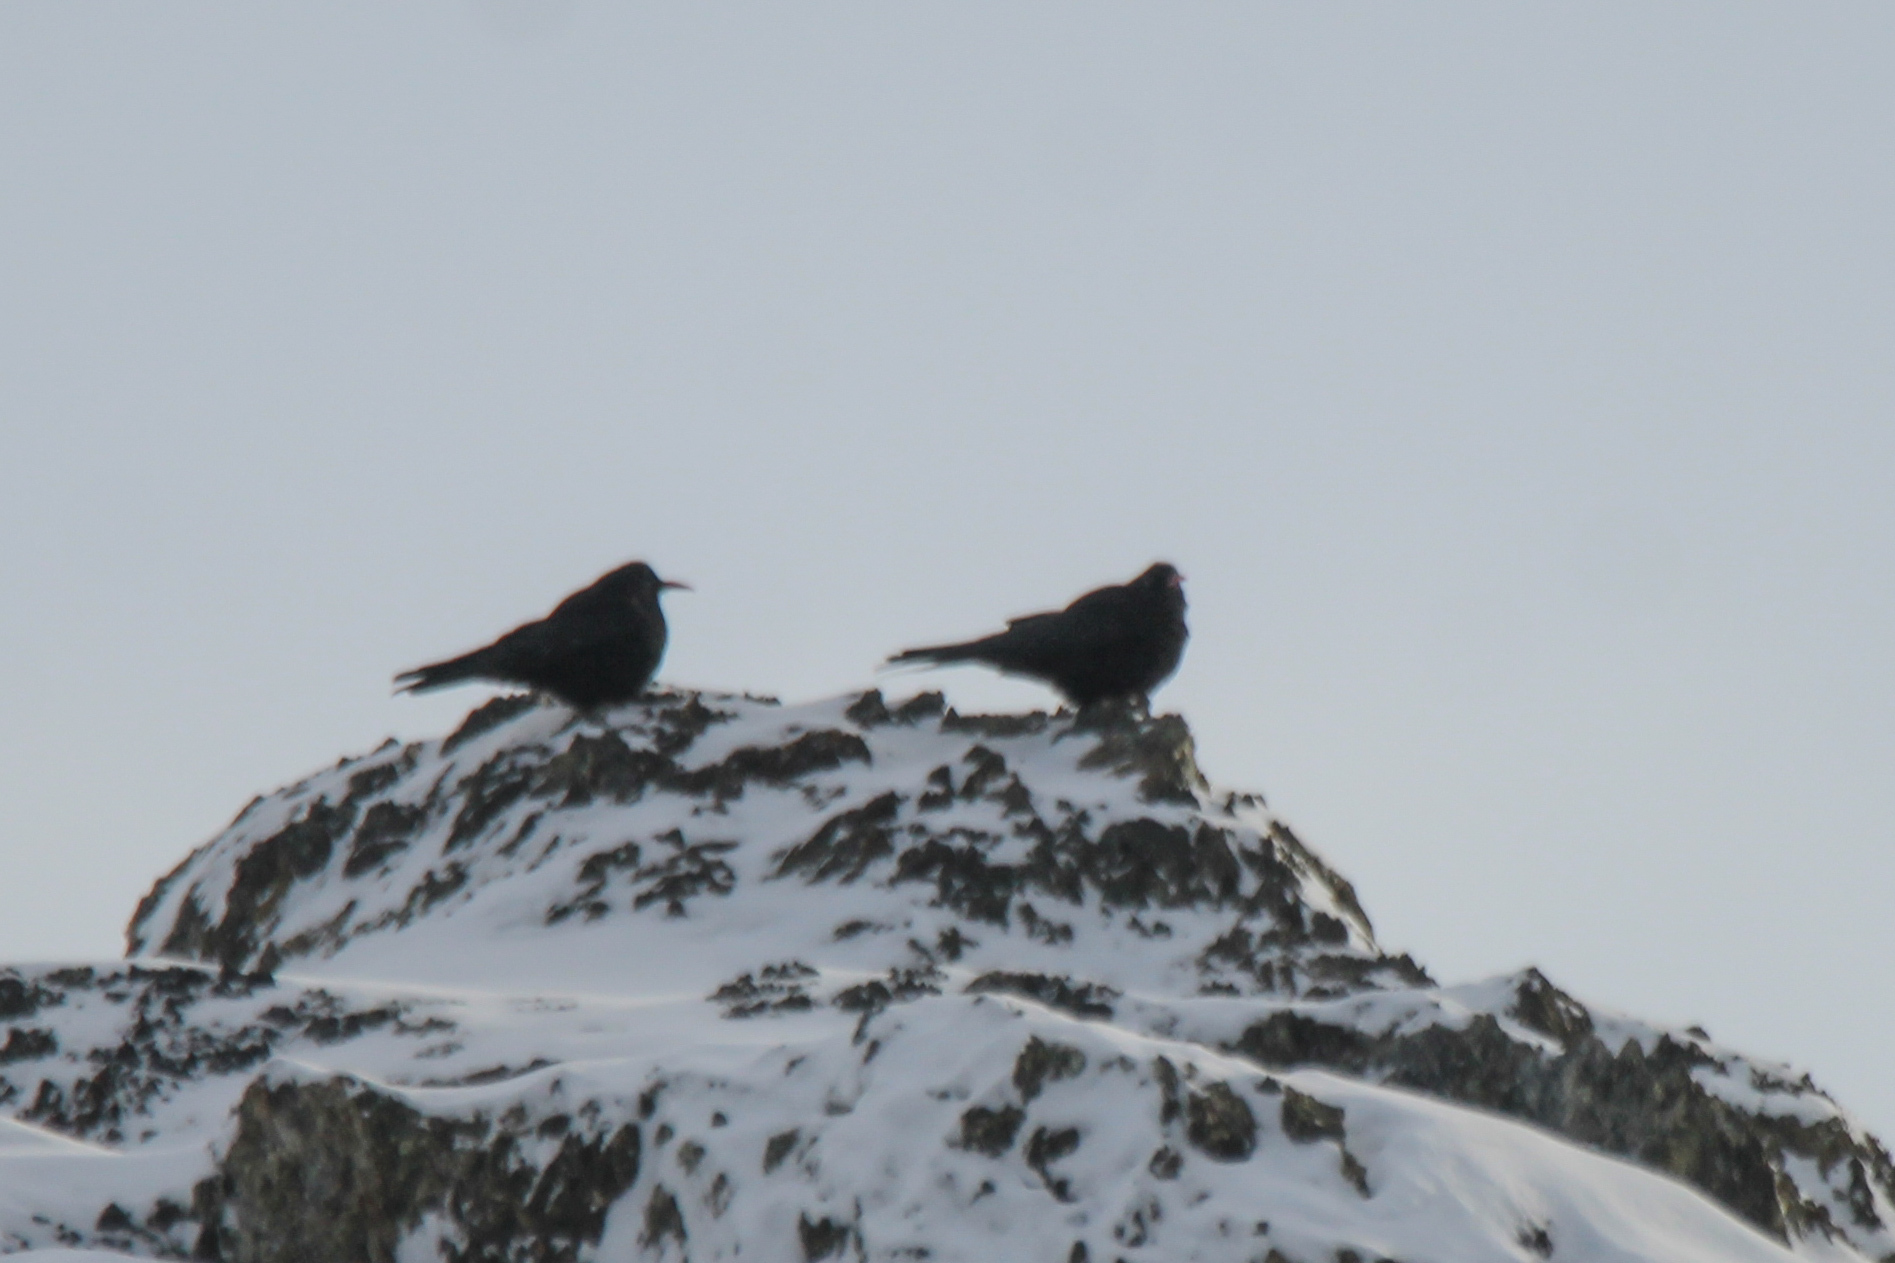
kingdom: Animalia
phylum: Chordata
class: Aves
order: Passeriformes
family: Corvidae
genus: Pyrrhocorax
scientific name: Pyrrhocorax pyrrhocorax
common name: Red-billed chough
